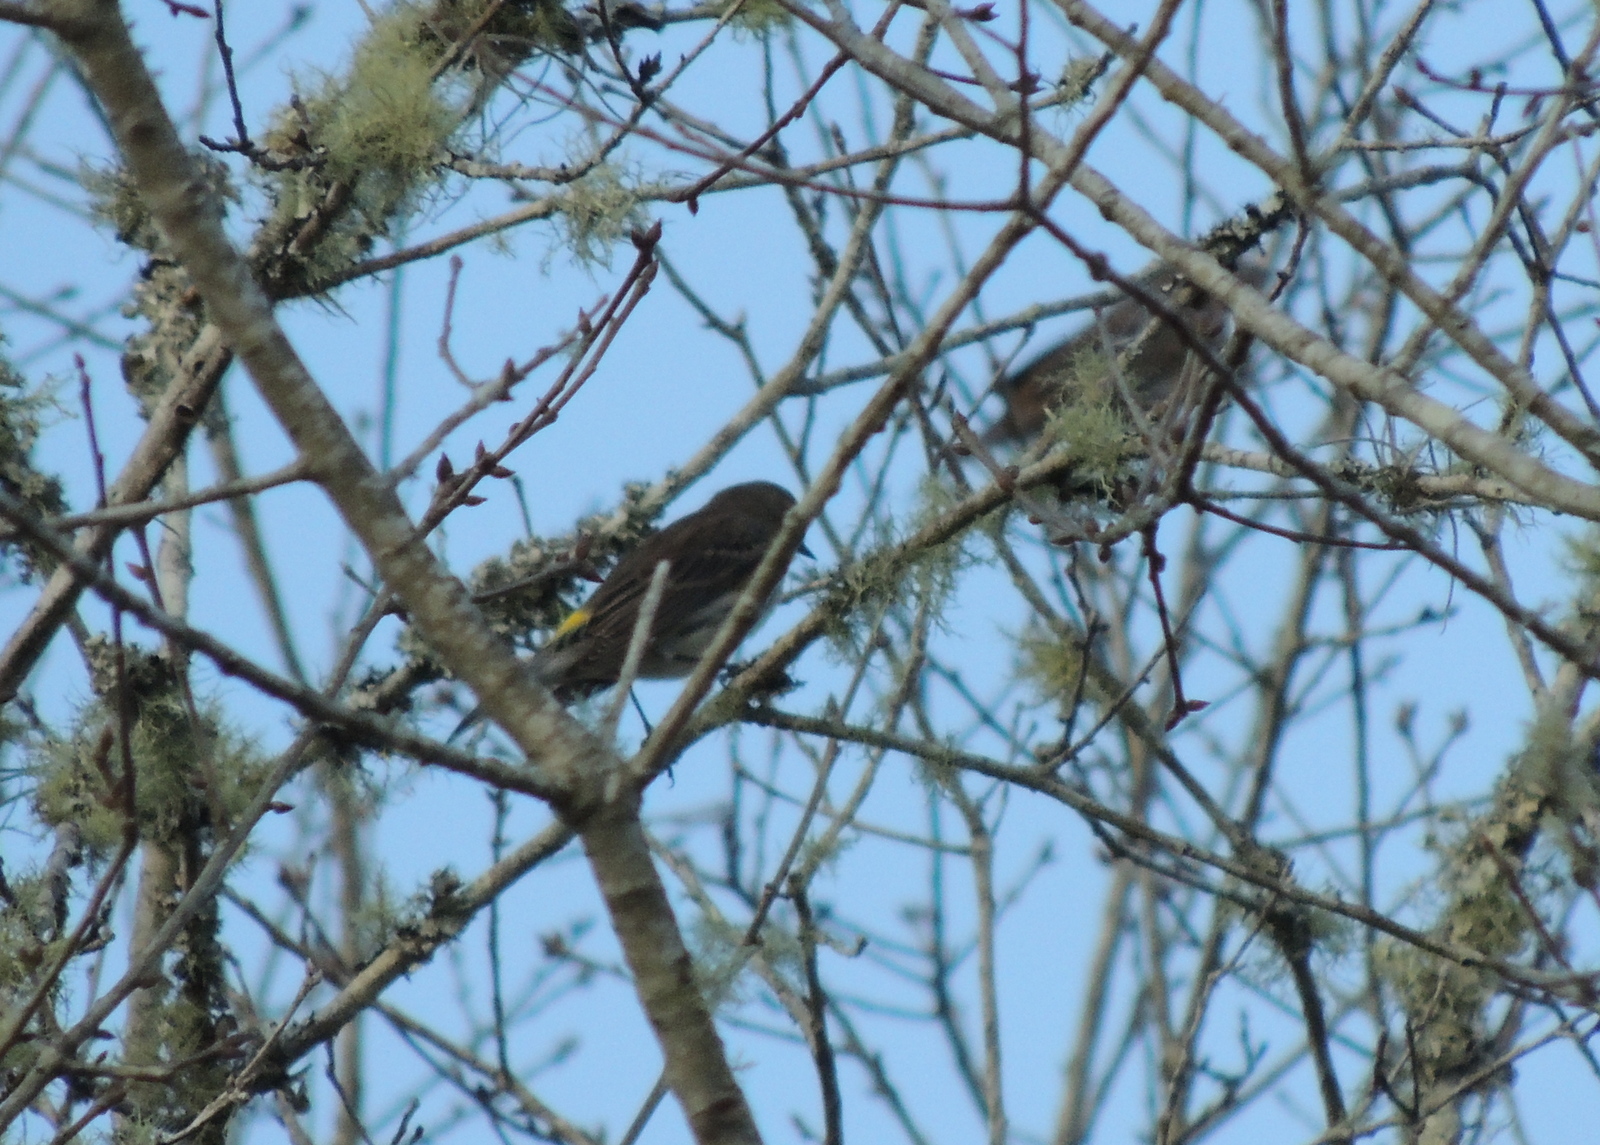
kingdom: Animalia
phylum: Chordata
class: Aves
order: Passeriformes
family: Parulidae
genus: Setophaga
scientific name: Setophaga coronata
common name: Myrtle warbler
